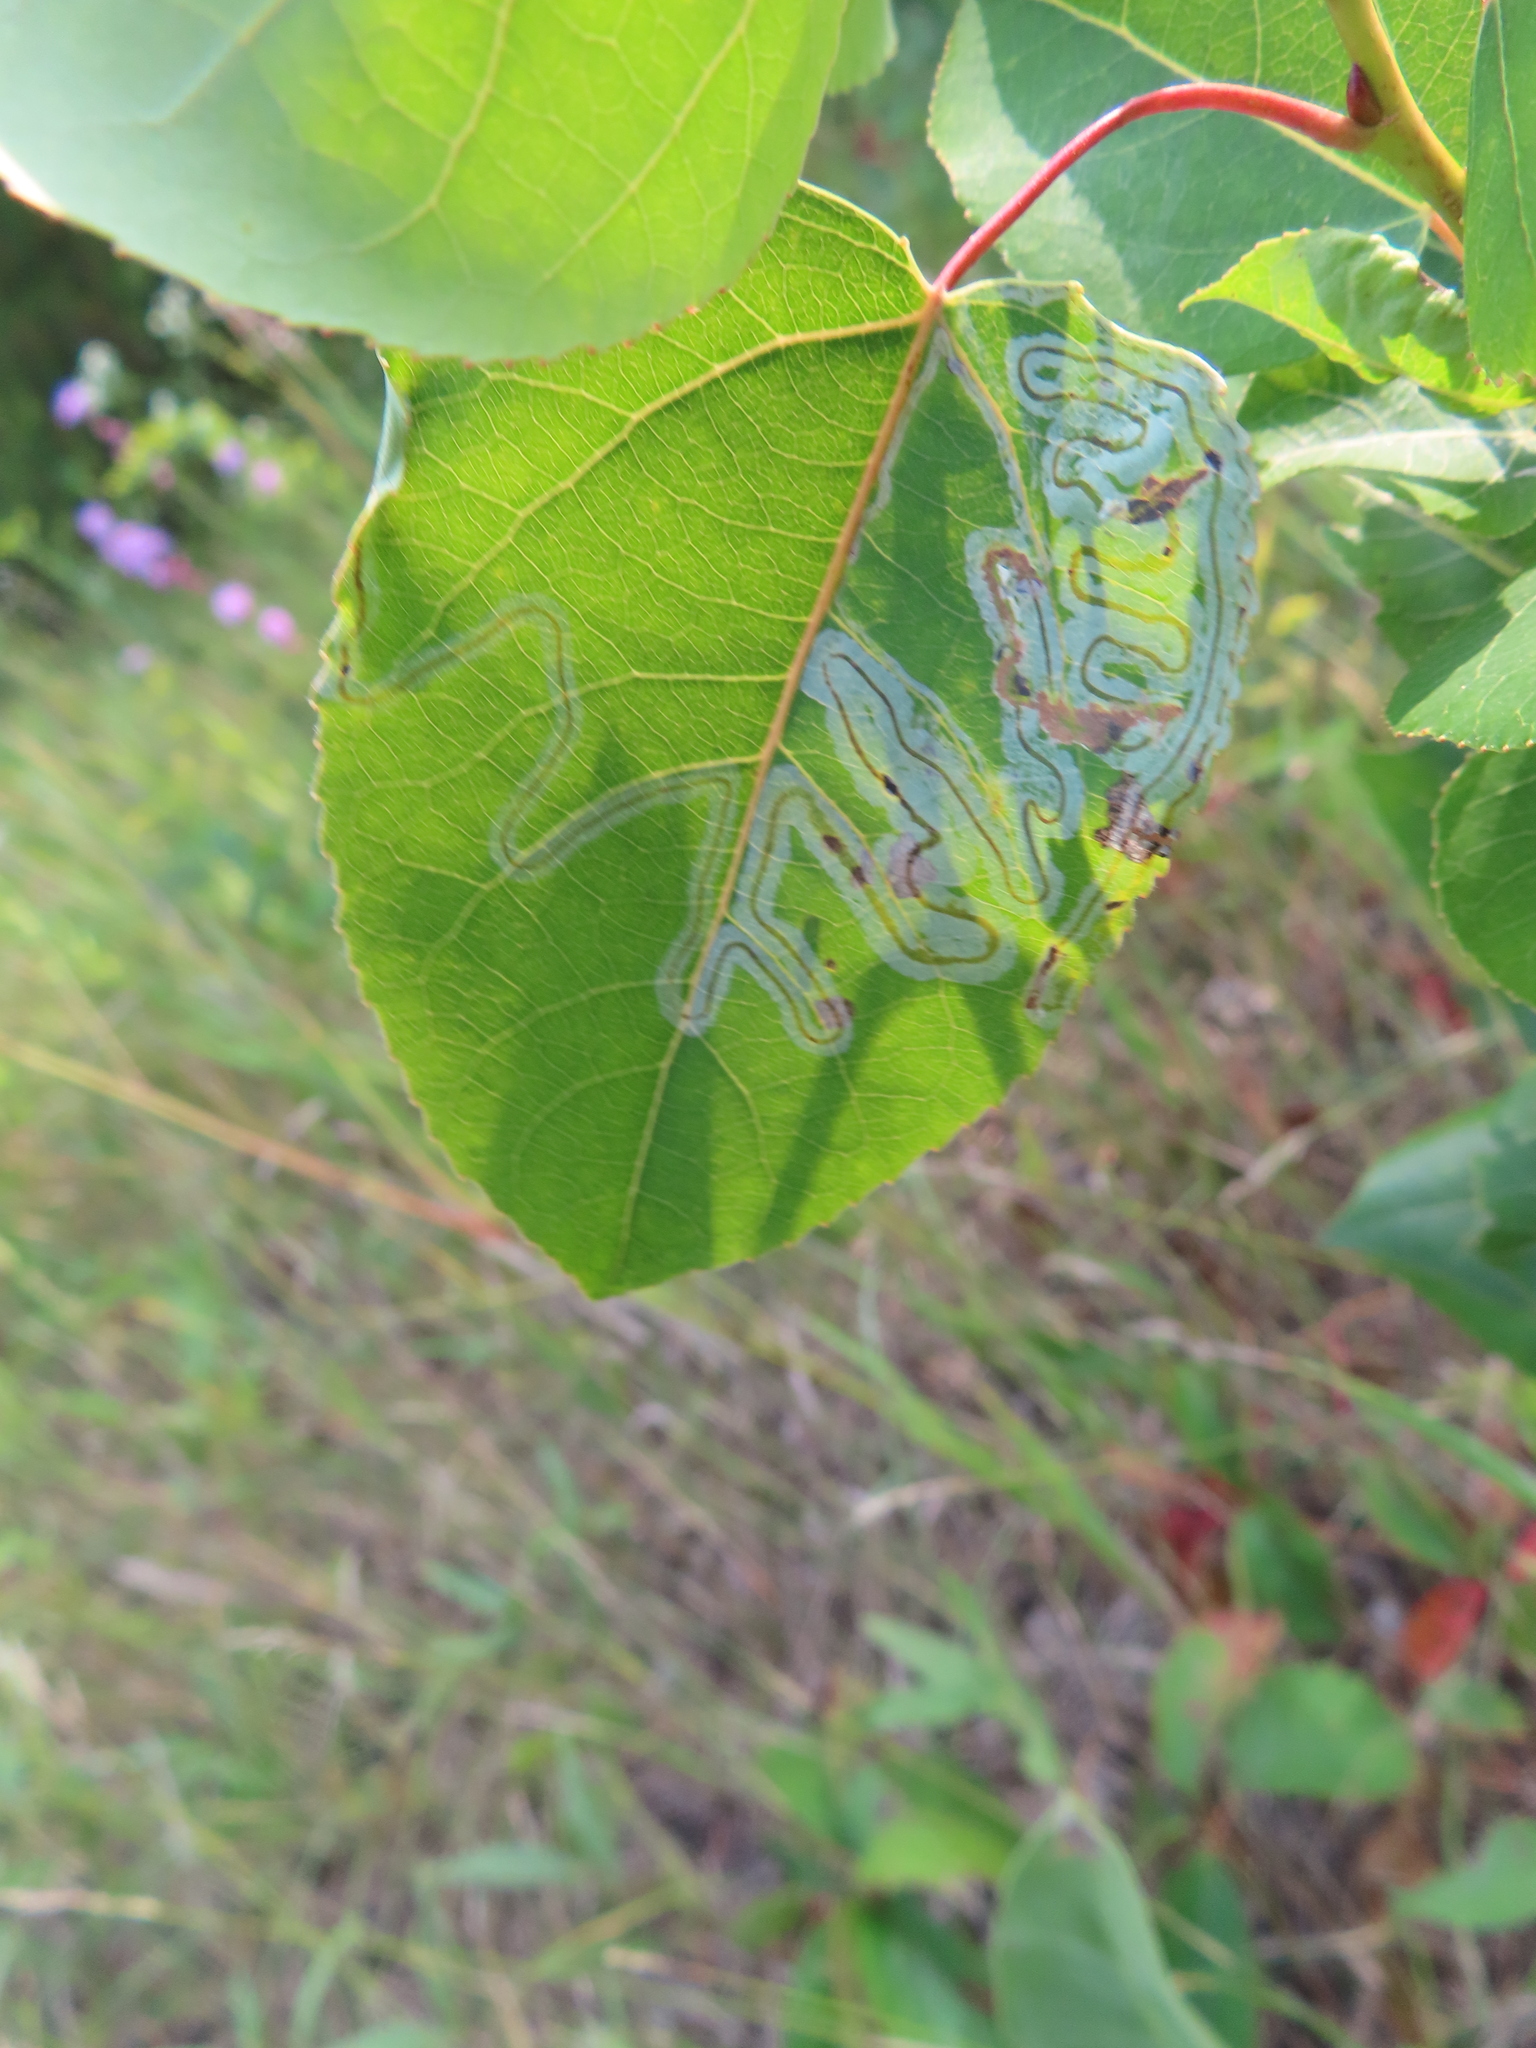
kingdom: Animalia
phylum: Arthropoda
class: Insecta
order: Lepidoptera
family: Gracillariidae
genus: Phyllocnistis
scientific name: Phyllocnistis populiella
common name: Aspen serpentine leafminer moth
